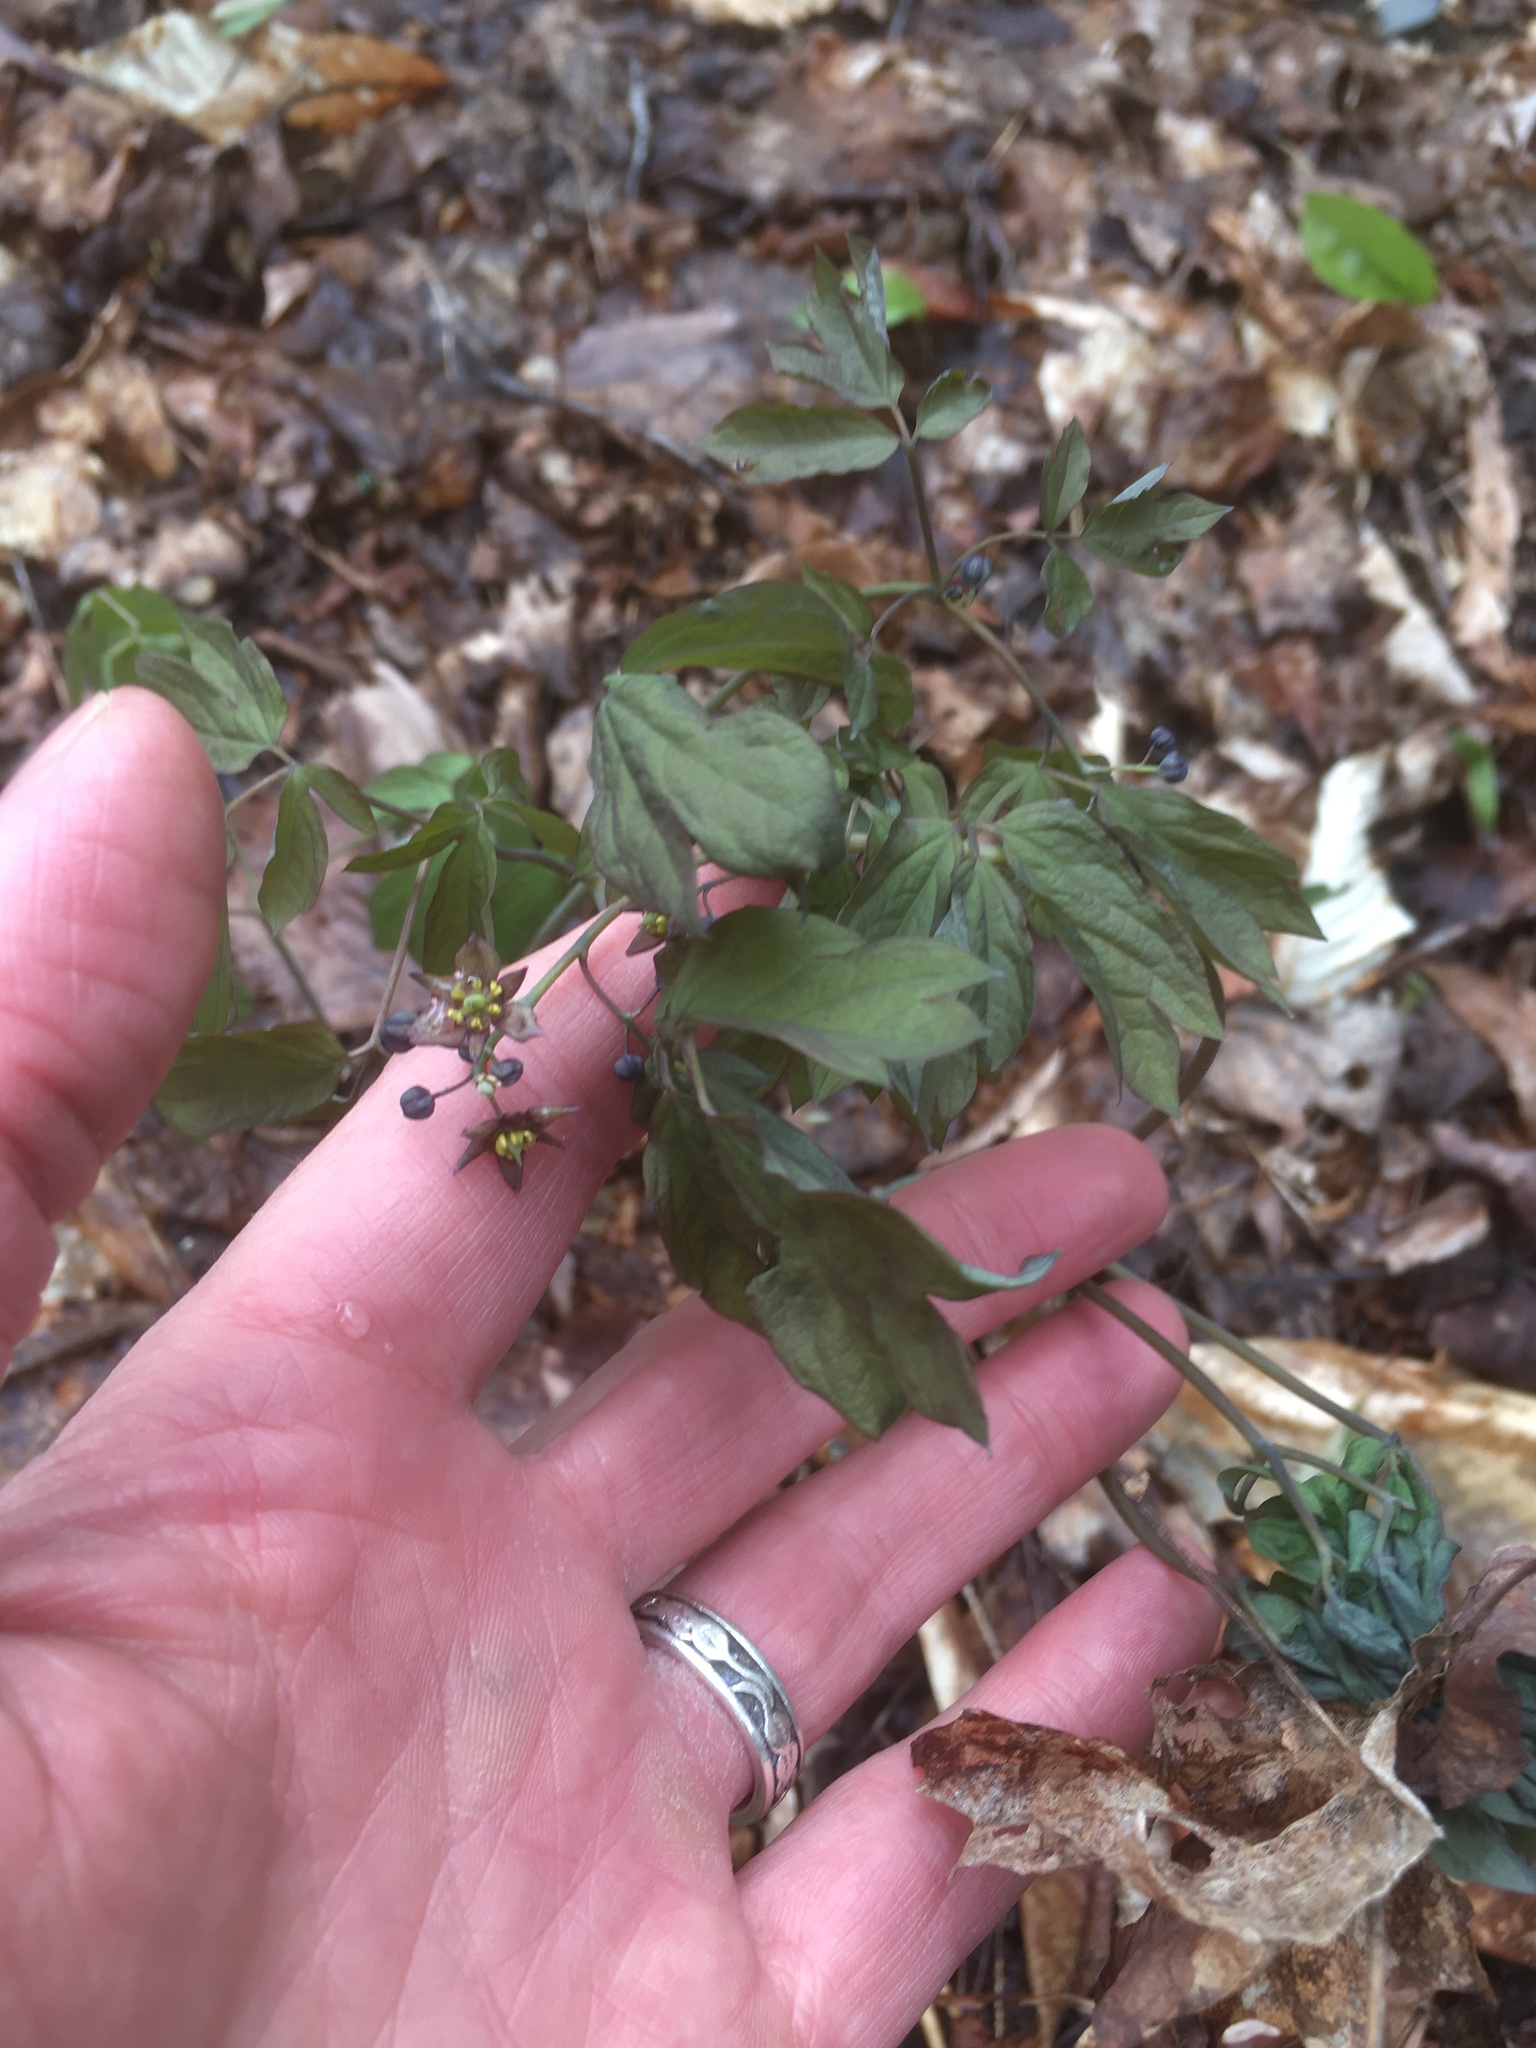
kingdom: Plantae
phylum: Tracheophyta
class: Magnoliopsida
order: Ranunculales
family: Berberidaceae
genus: Caulophyllum
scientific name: Caulophyllum giganteum
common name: Blue cohosh
